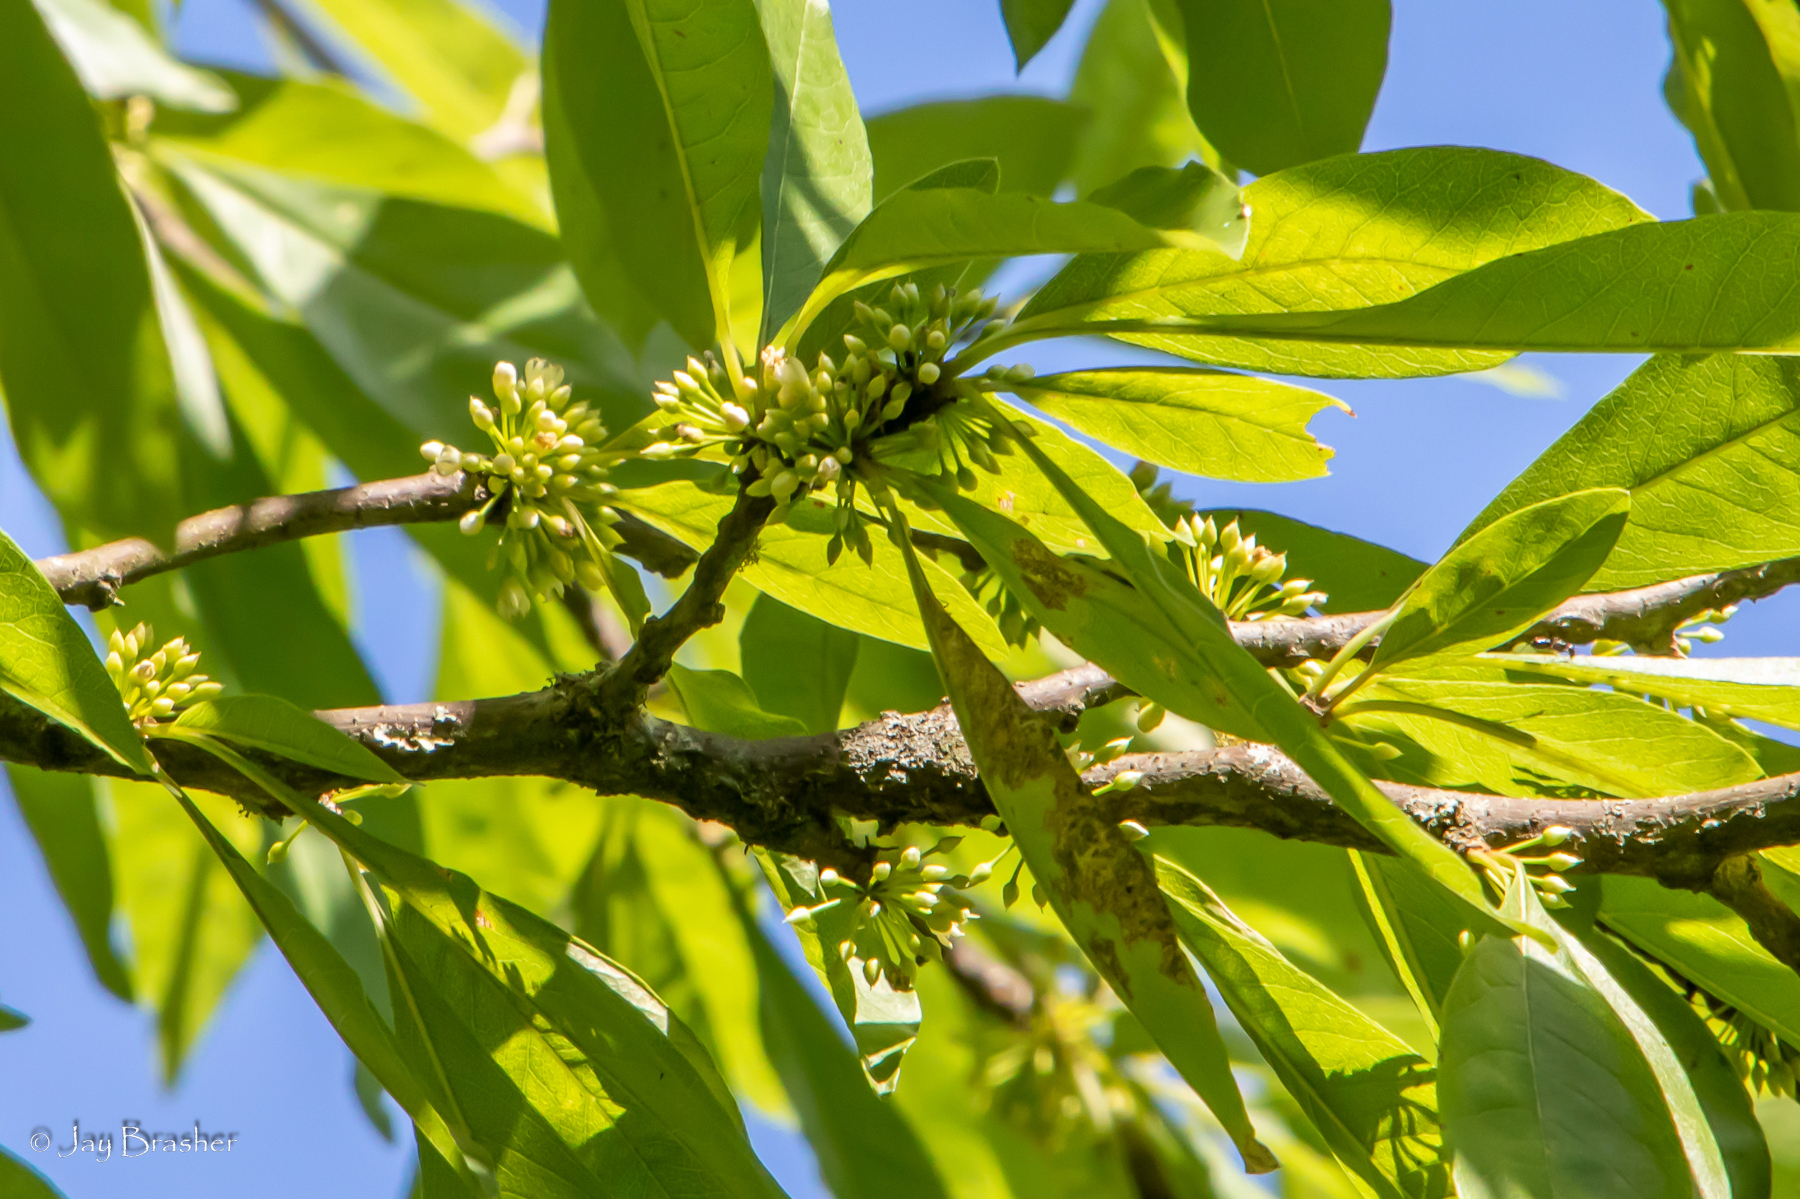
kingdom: Plantae
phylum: Tracheophyta
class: Magnoliopsida
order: Ericales
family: Sapotaceae
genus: Sideroxylon
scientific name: Sideroxylon lycioides
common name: Buckthorn bumelia
